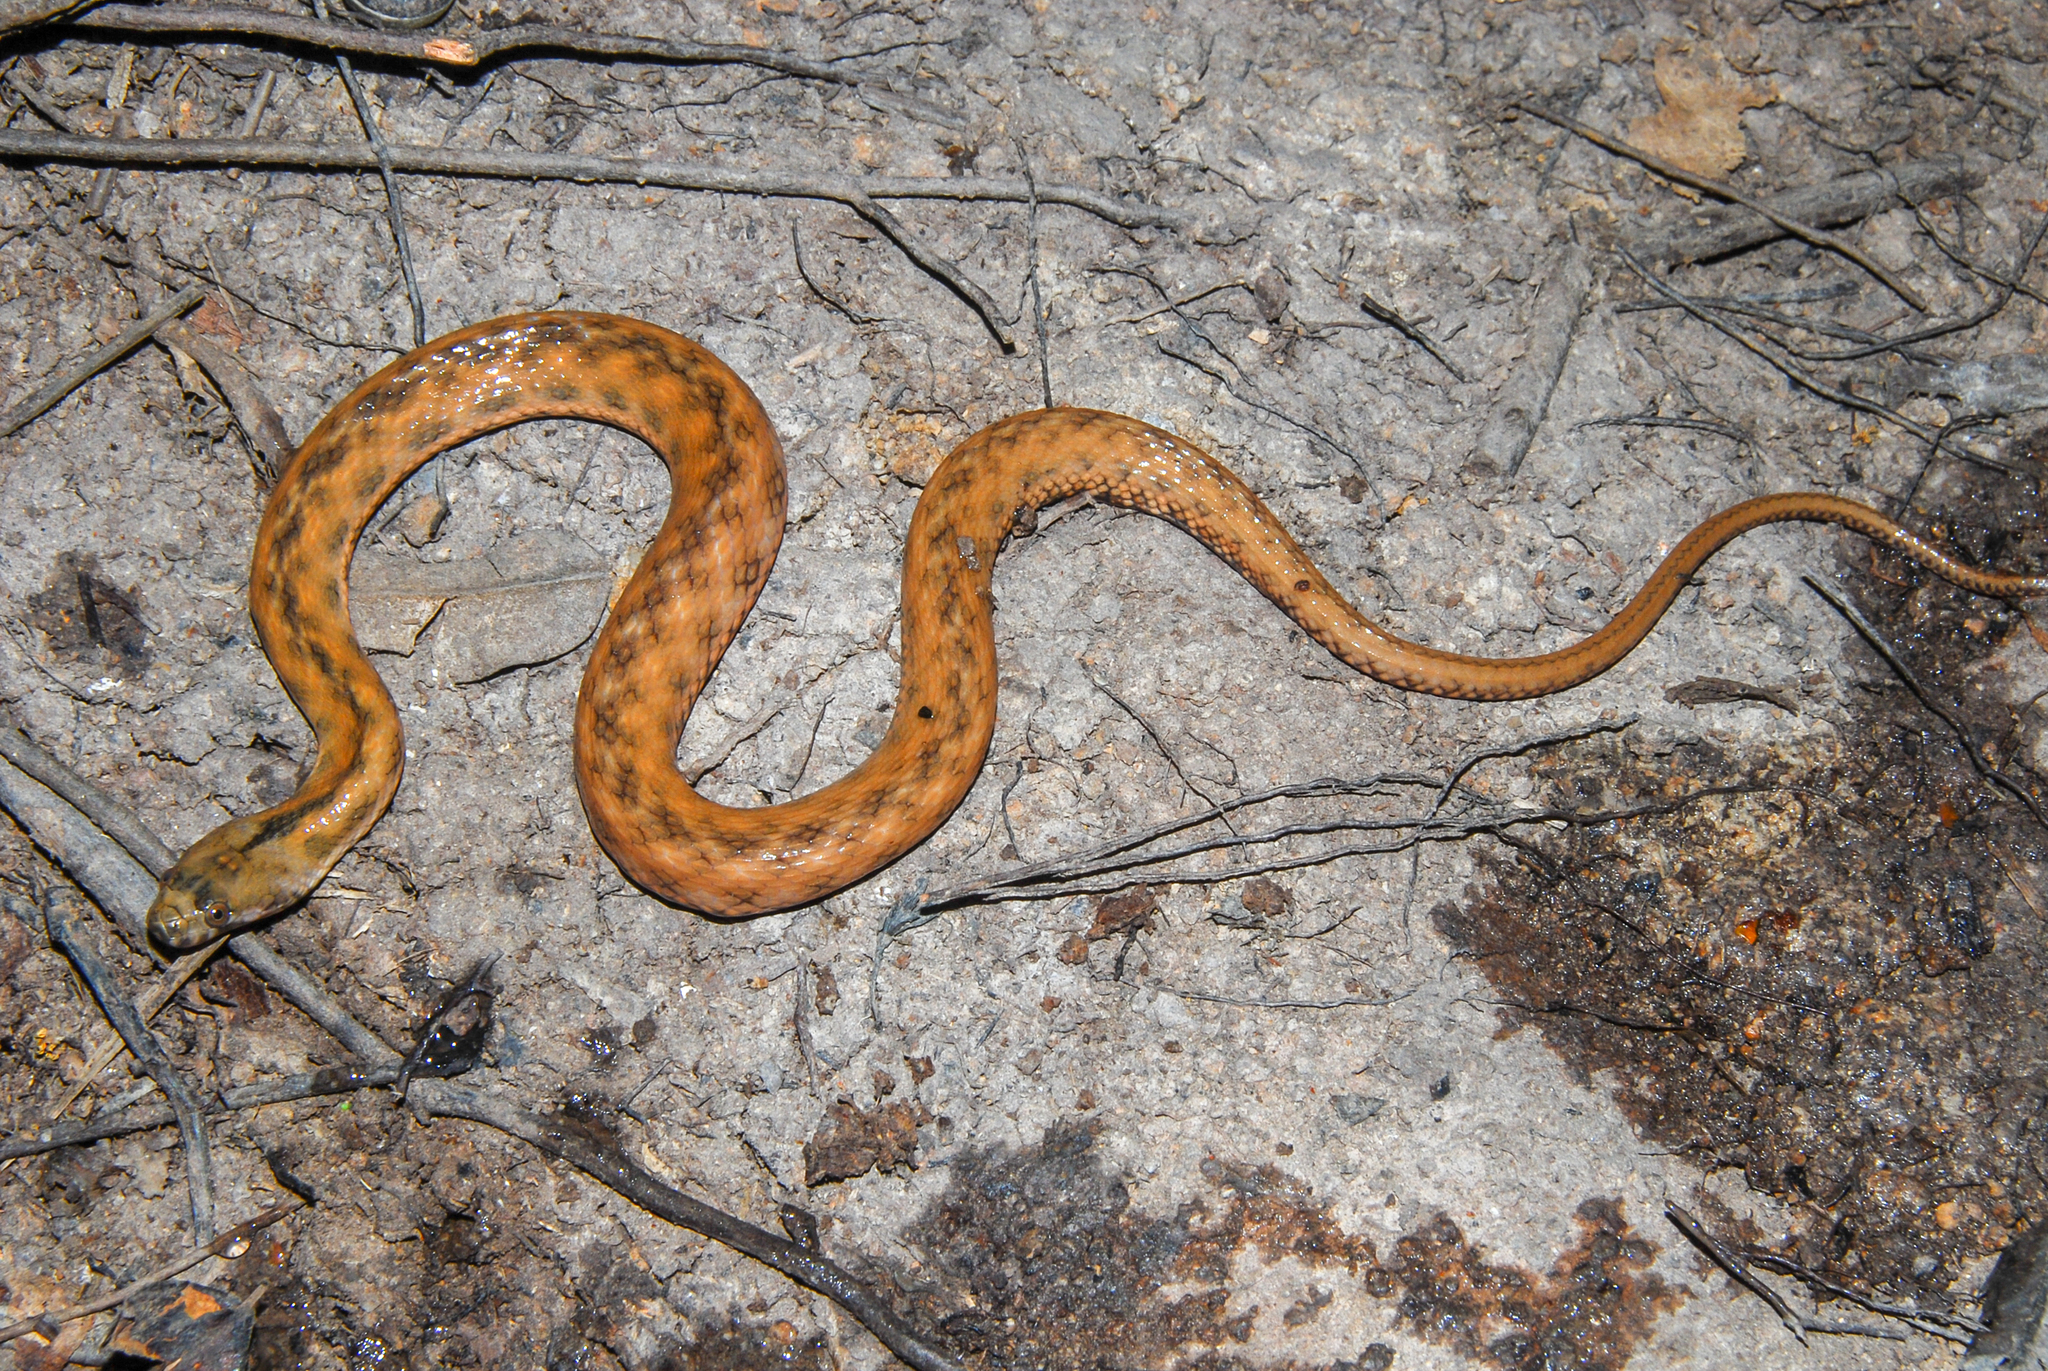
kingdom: Animalia
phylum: Chordata
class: Squamata
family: Colubridae
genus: Helicops
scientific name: Helicops polylepis
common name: Norman's keelback
